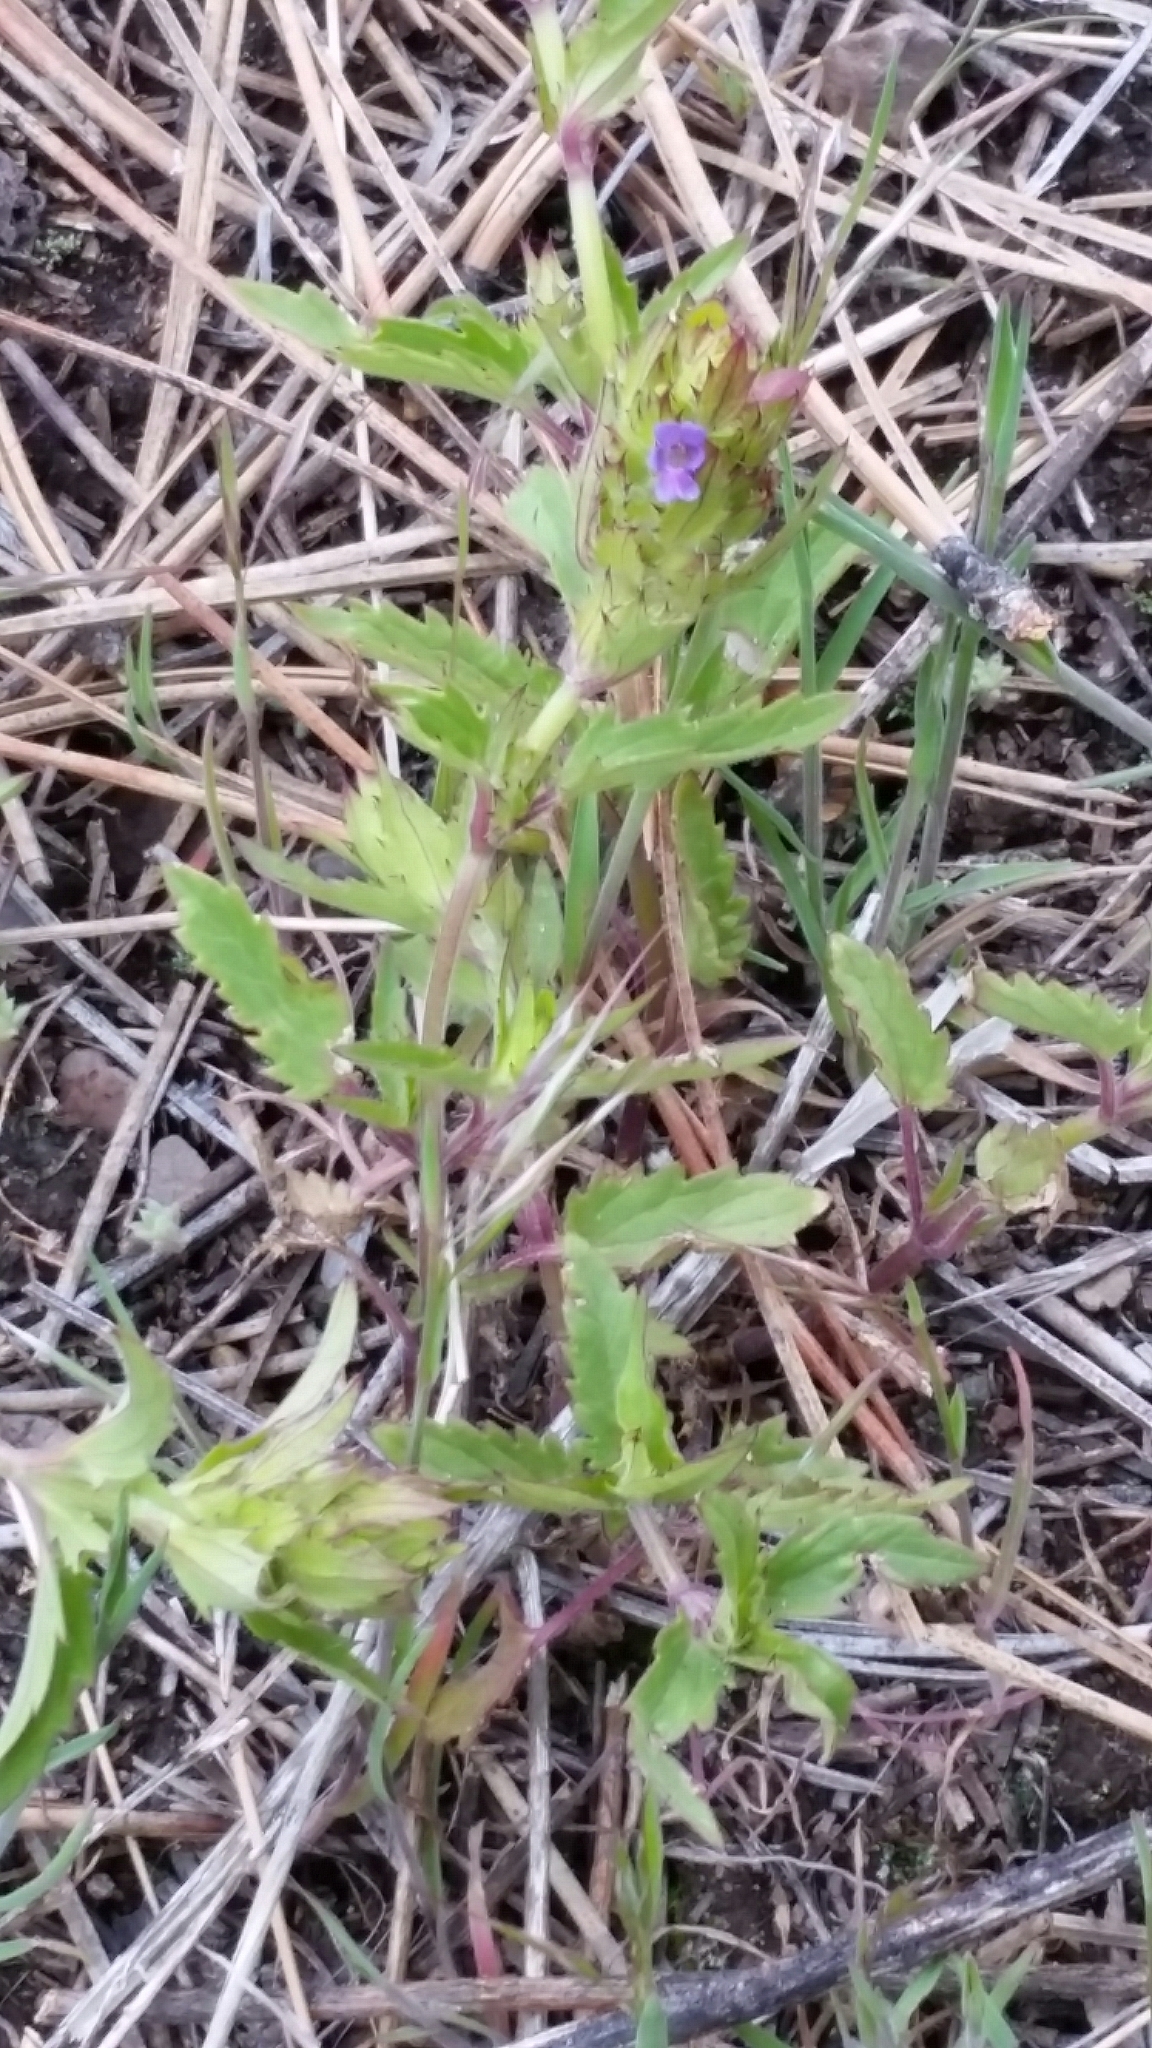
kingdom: Plantae
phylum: Tracheophyta
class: Magnoliopsida
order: Lamiales
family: Lamiaceae
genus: Dracocephalum
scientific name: Dracocephalum parviflorum
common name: American dragonhead
